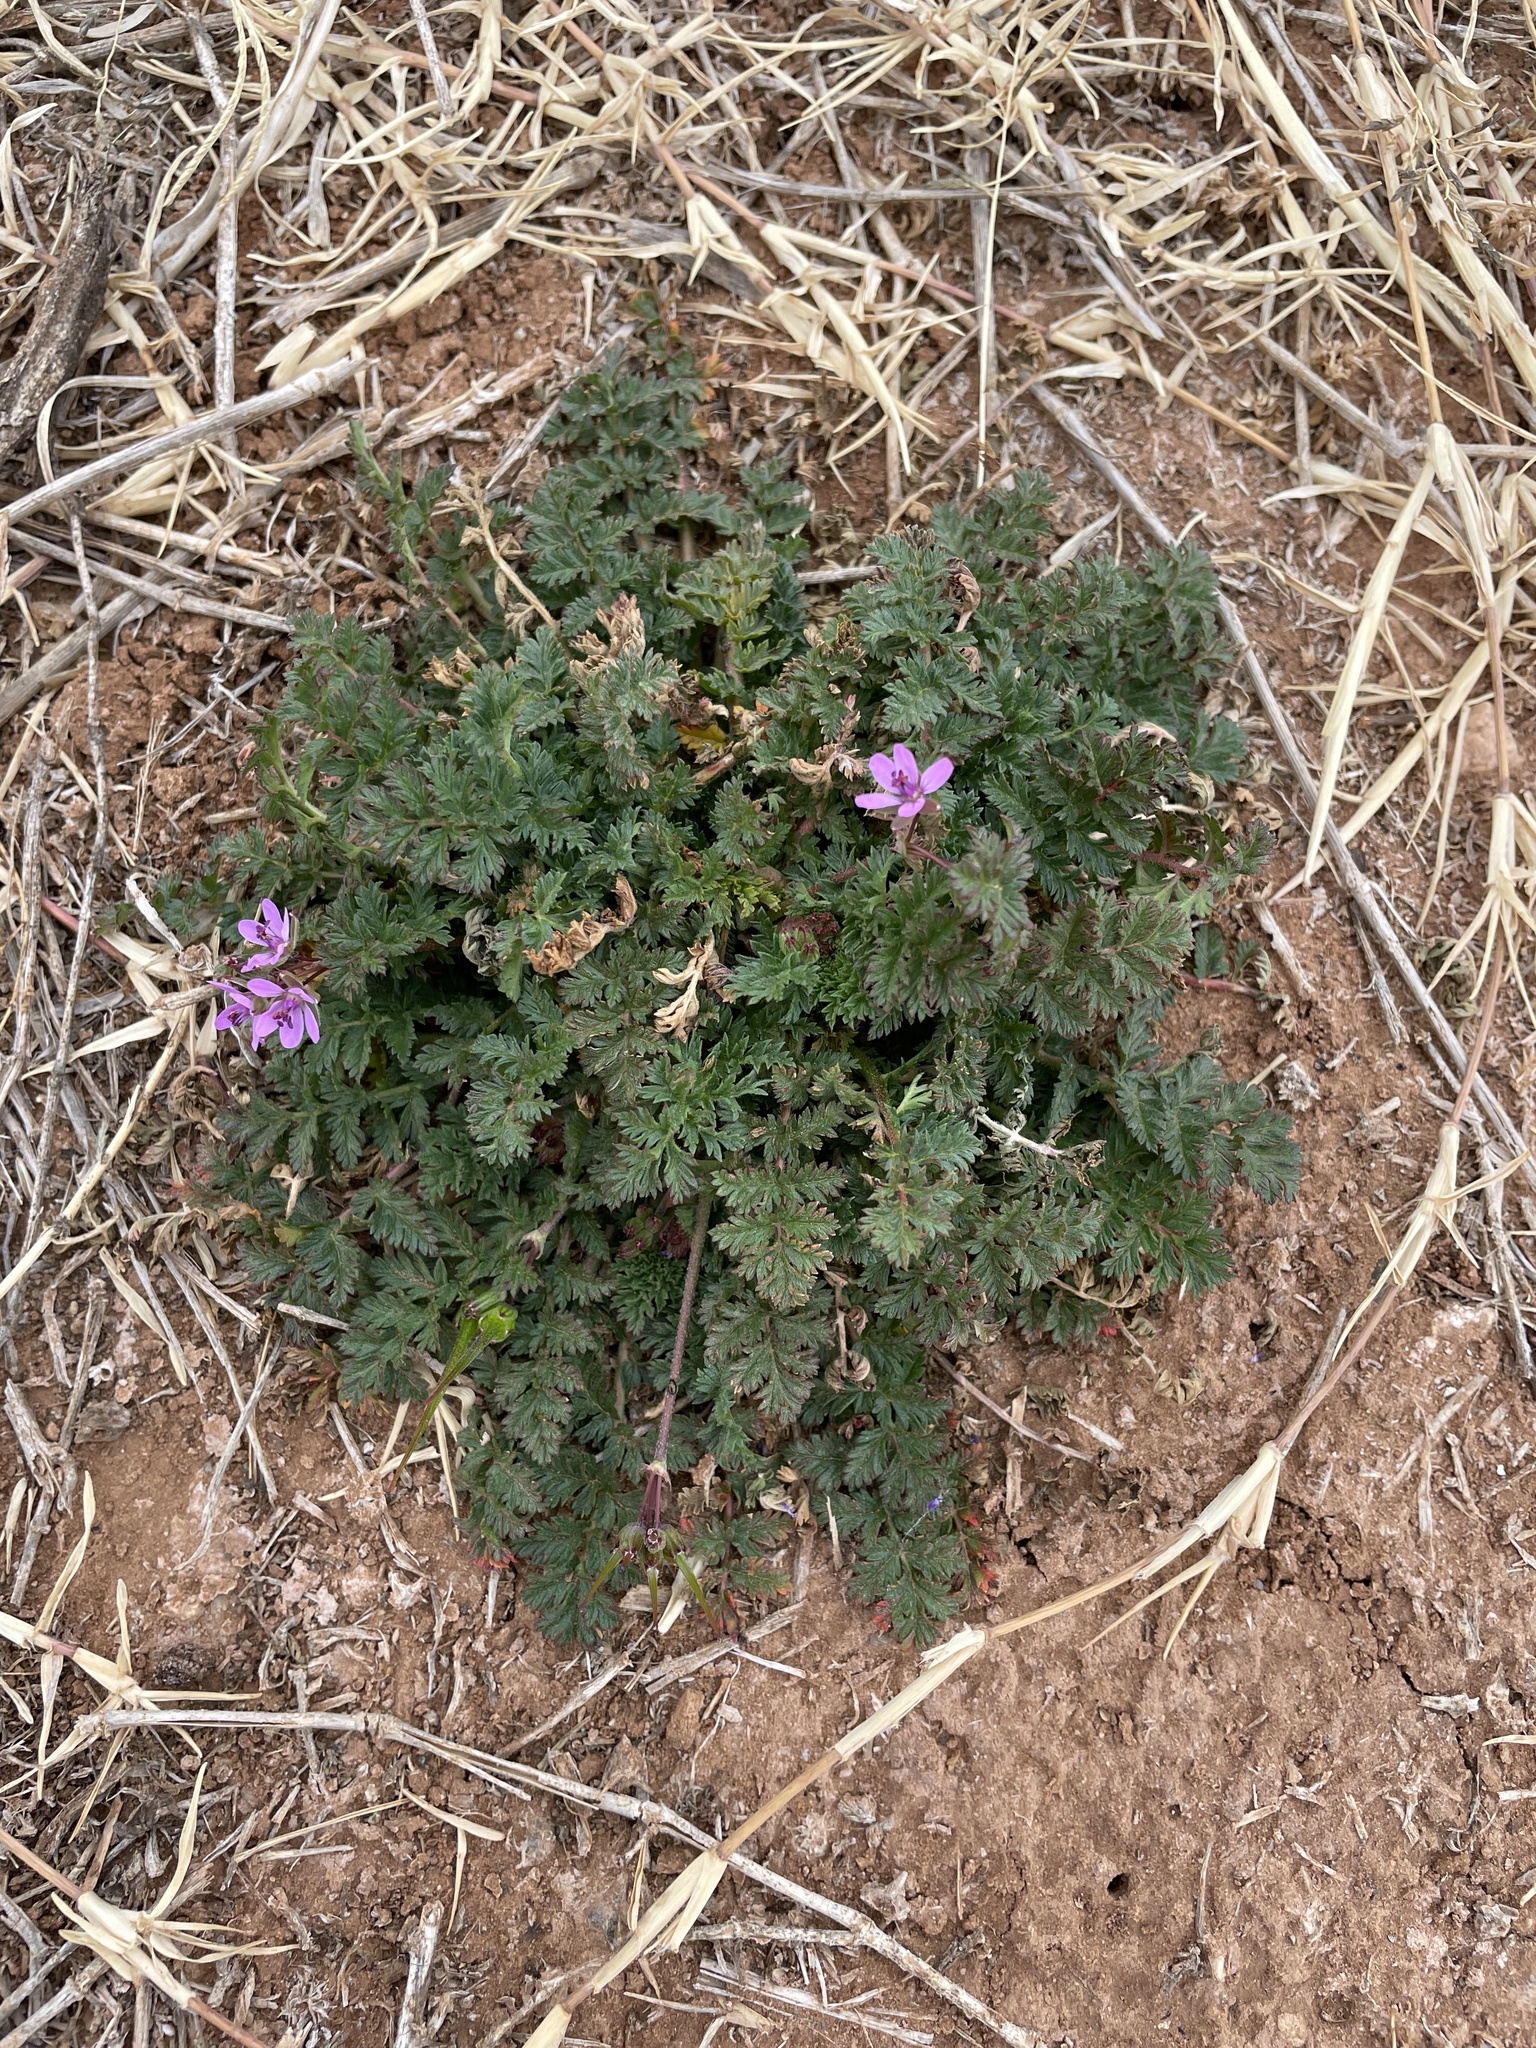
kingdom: Plantae
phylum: Tracheophyta
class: Magnoliopsida
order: Geraniales
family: Geraniaceae
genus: Erodium
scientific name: Erodium cicutarium
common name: Common stork's-bill
